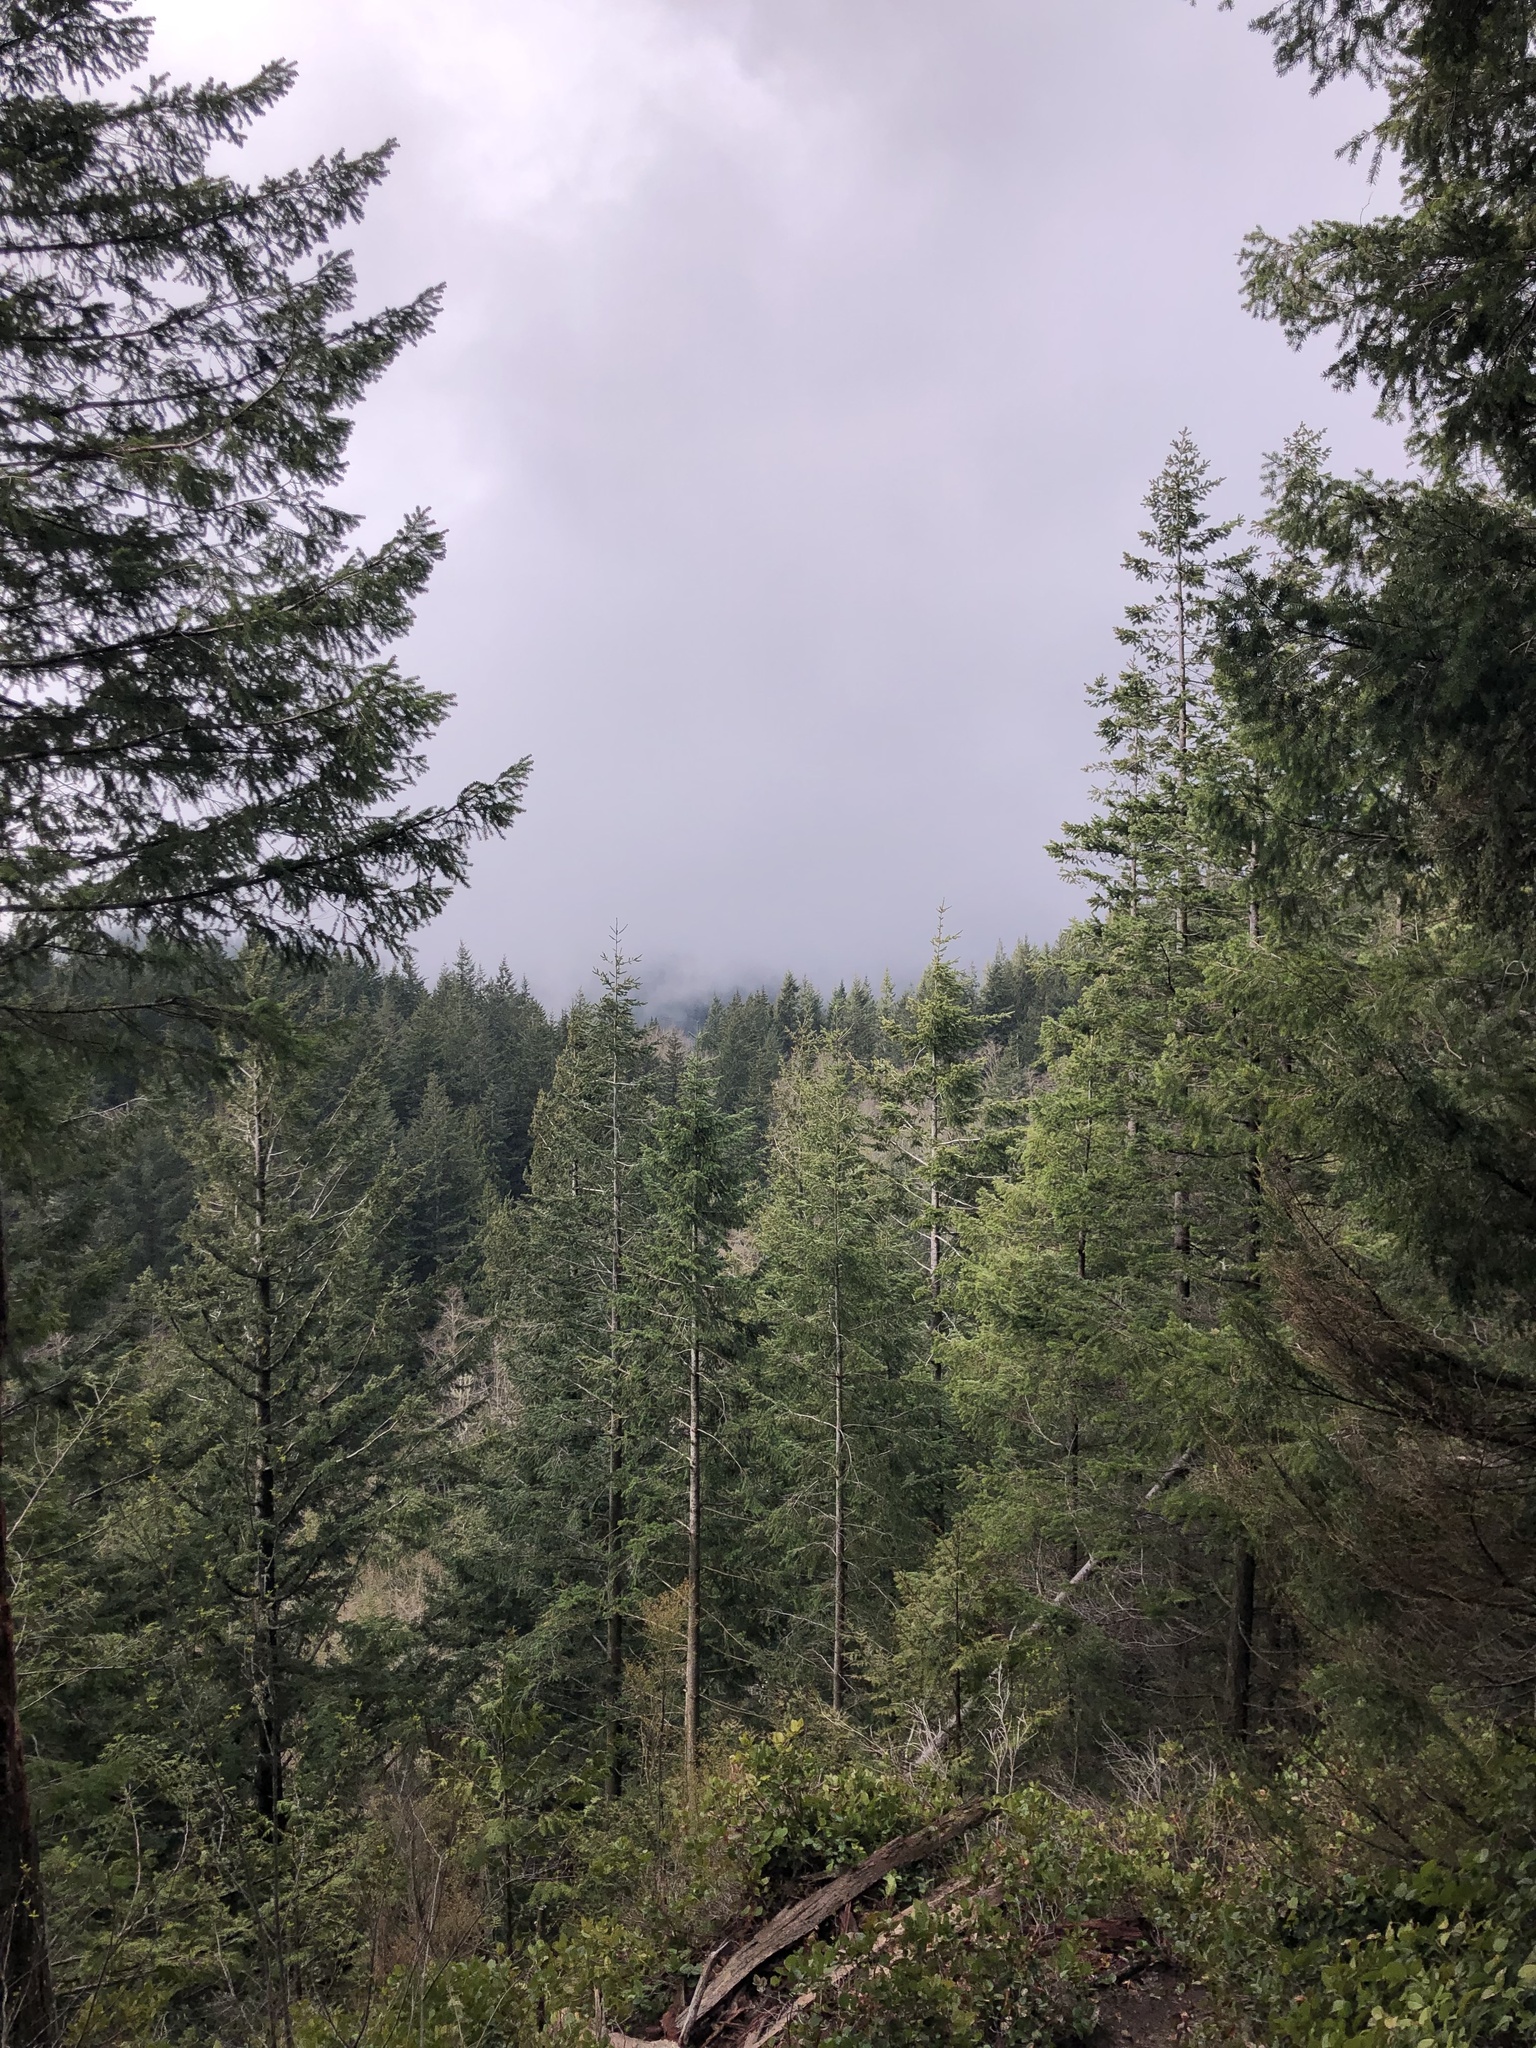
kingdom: Plantae
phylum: Tracheophyta
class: Pinopsida
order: Pinales
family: Pinaceae
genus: Pseudotsuga
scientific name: Pseudotsuga menziesii
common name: Douglas fir
